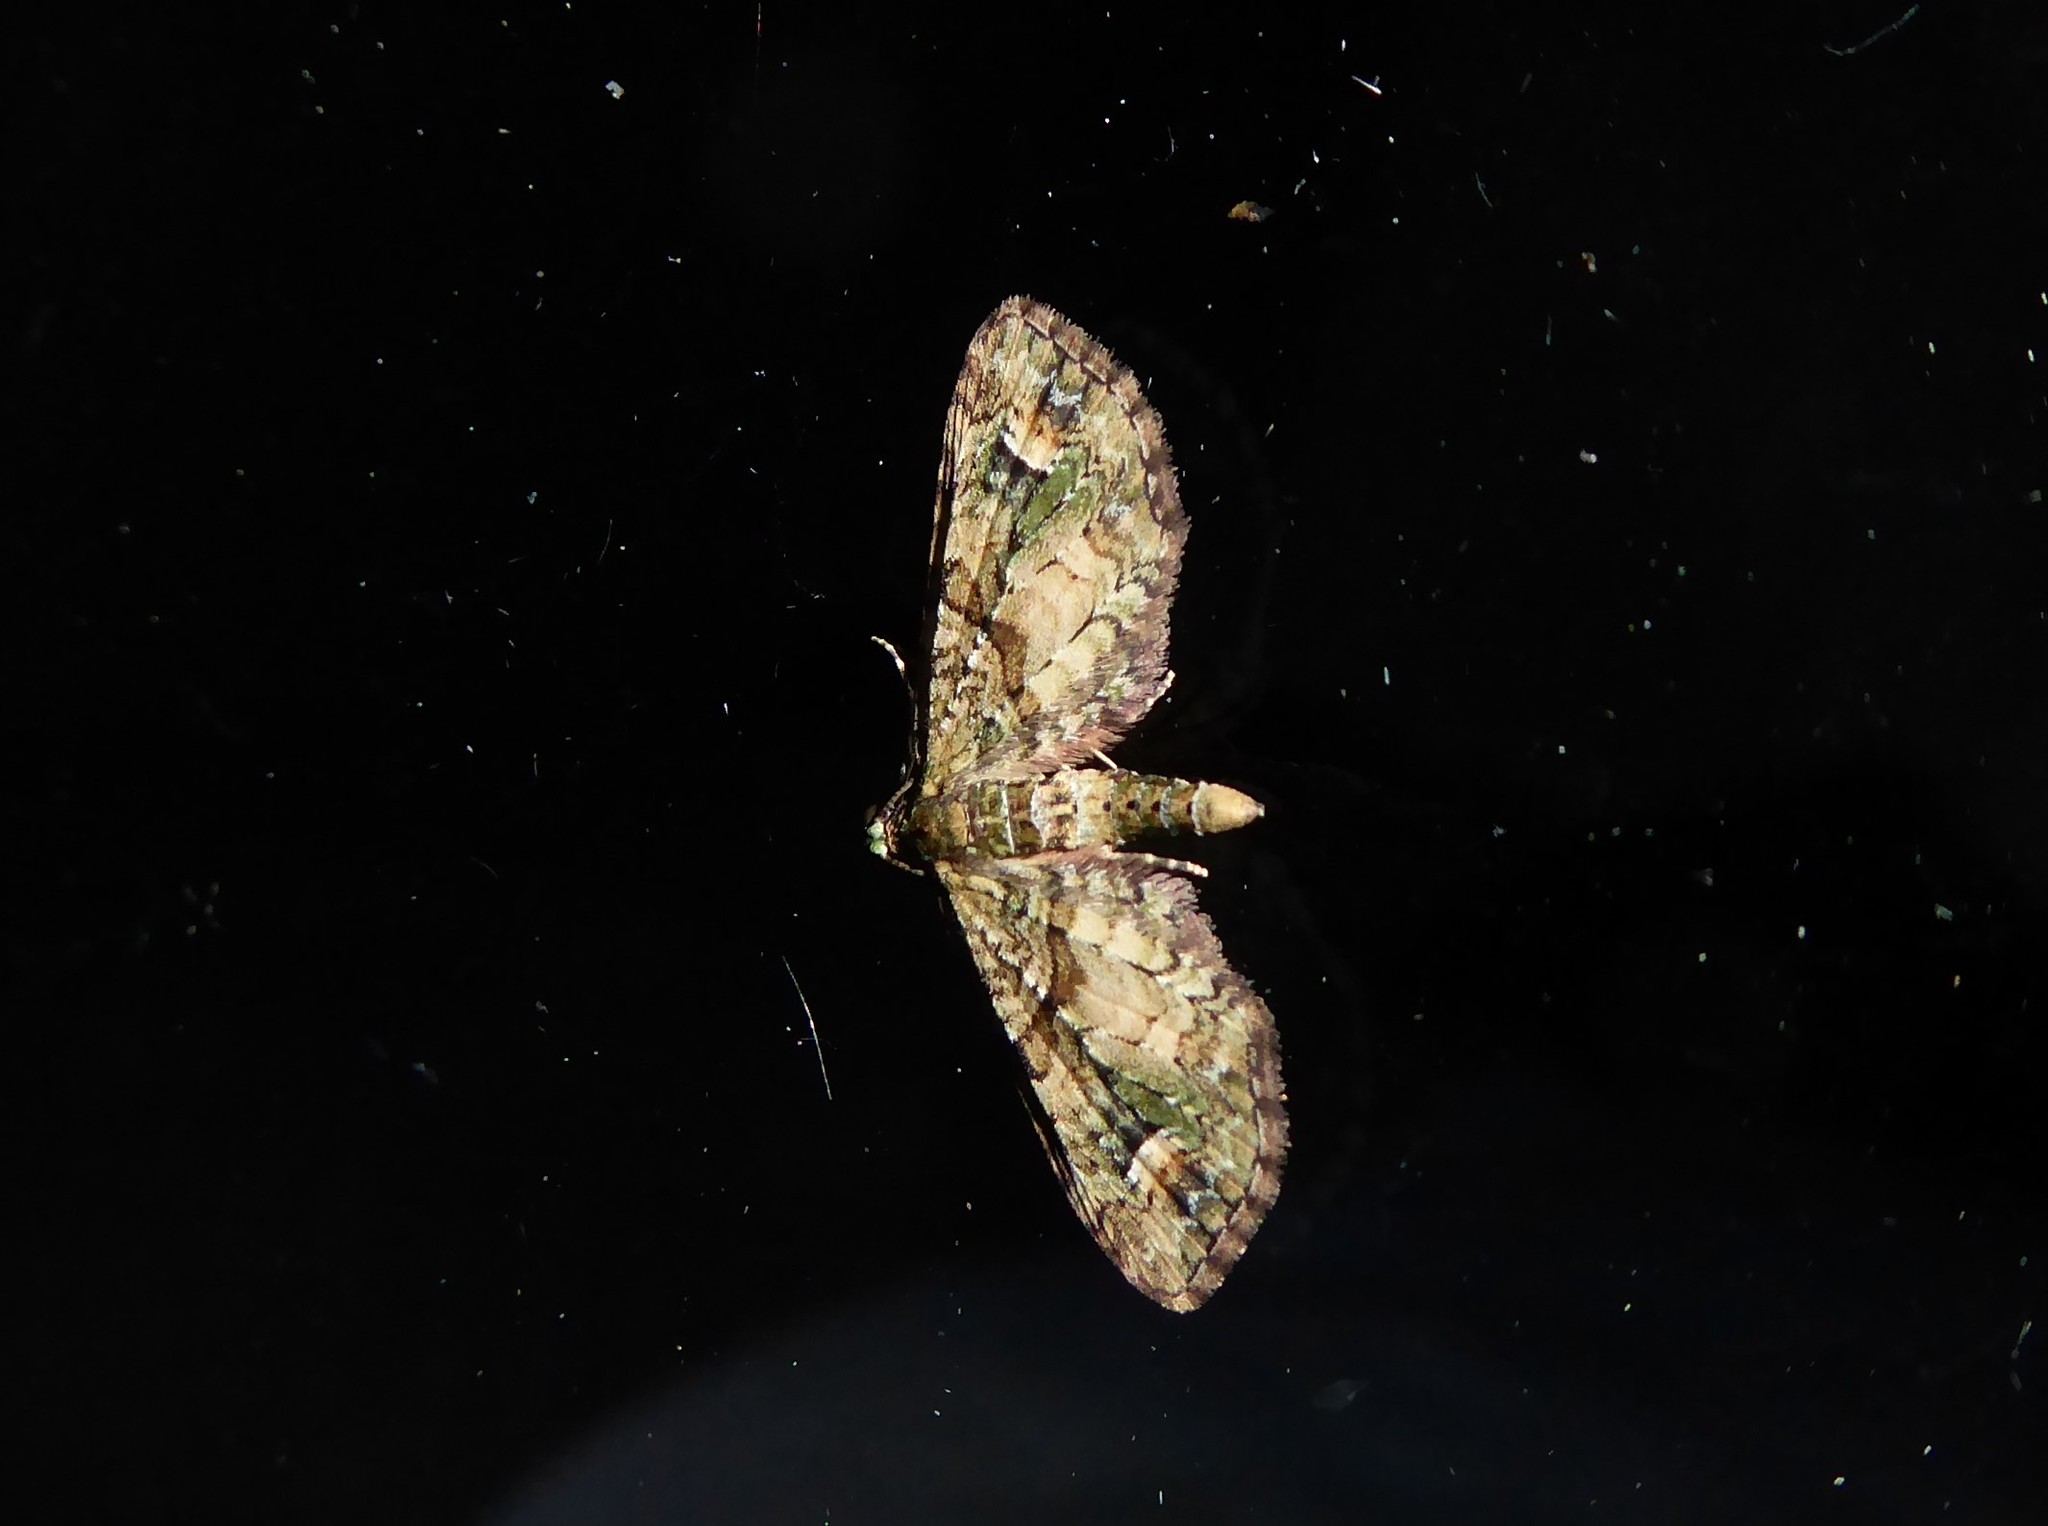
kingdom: Animalia
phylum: Arthropoda
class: Insecta
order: Lepidoptera
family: Geometridae
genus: Idaea
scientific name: Idaea mutanda
